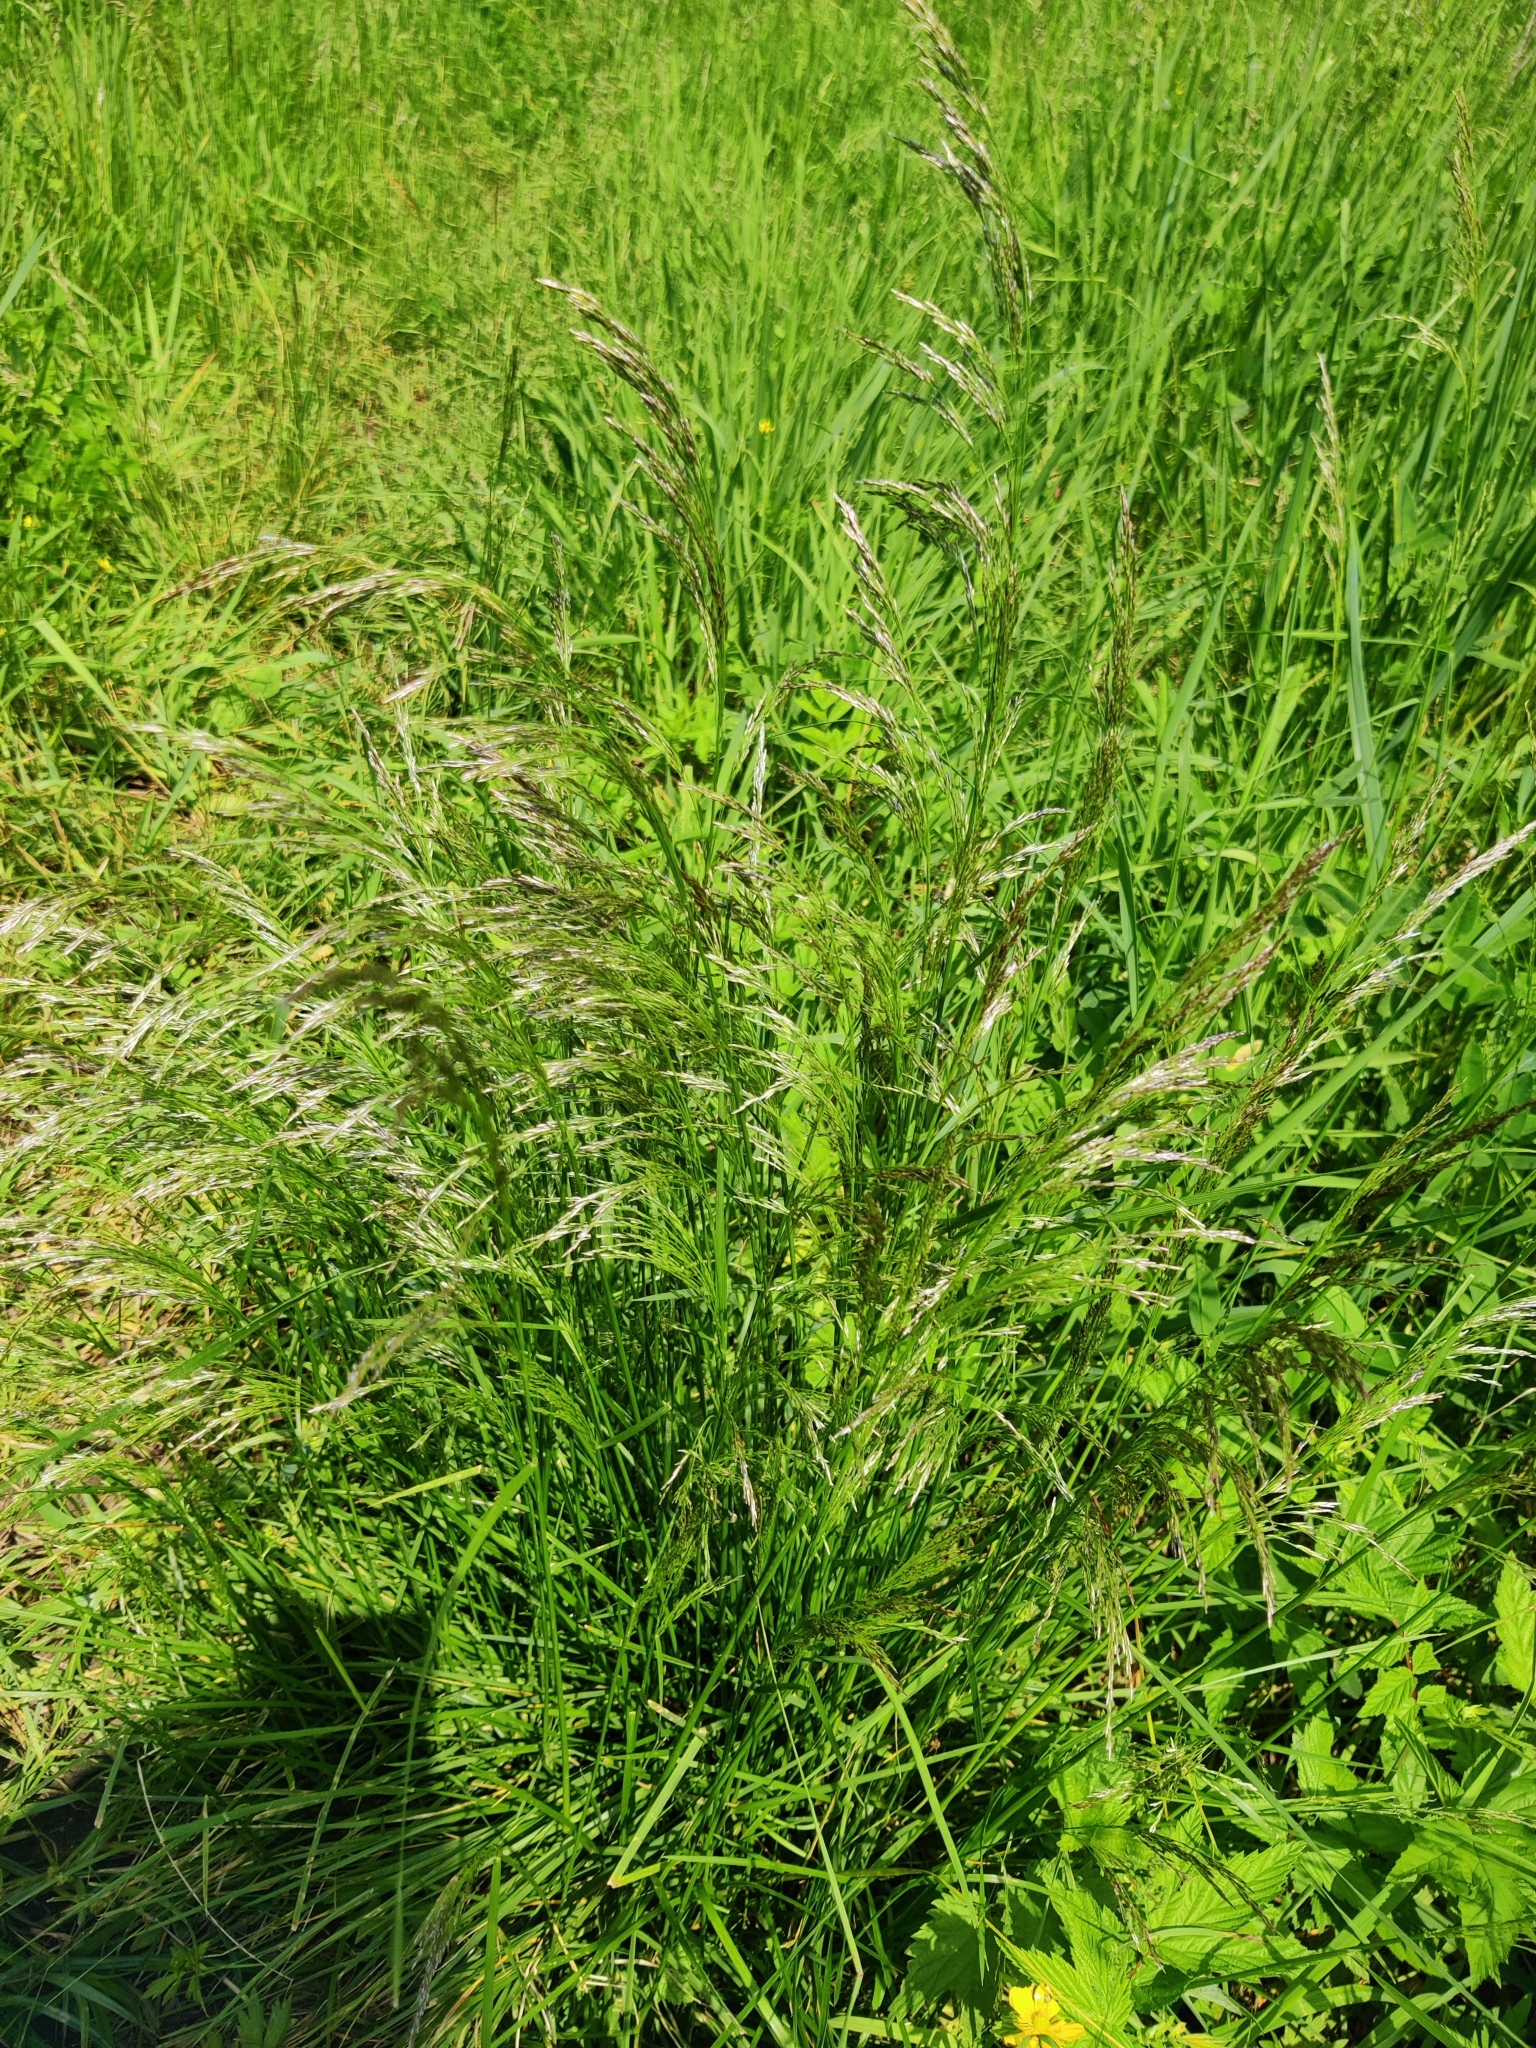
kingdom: Plantae
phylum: Tracheophyta
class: Liliopsida
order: Poales
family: Poaceae
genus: Deschampsia
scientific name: Deschampsia cespitosa
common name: Tufted hair-grass
